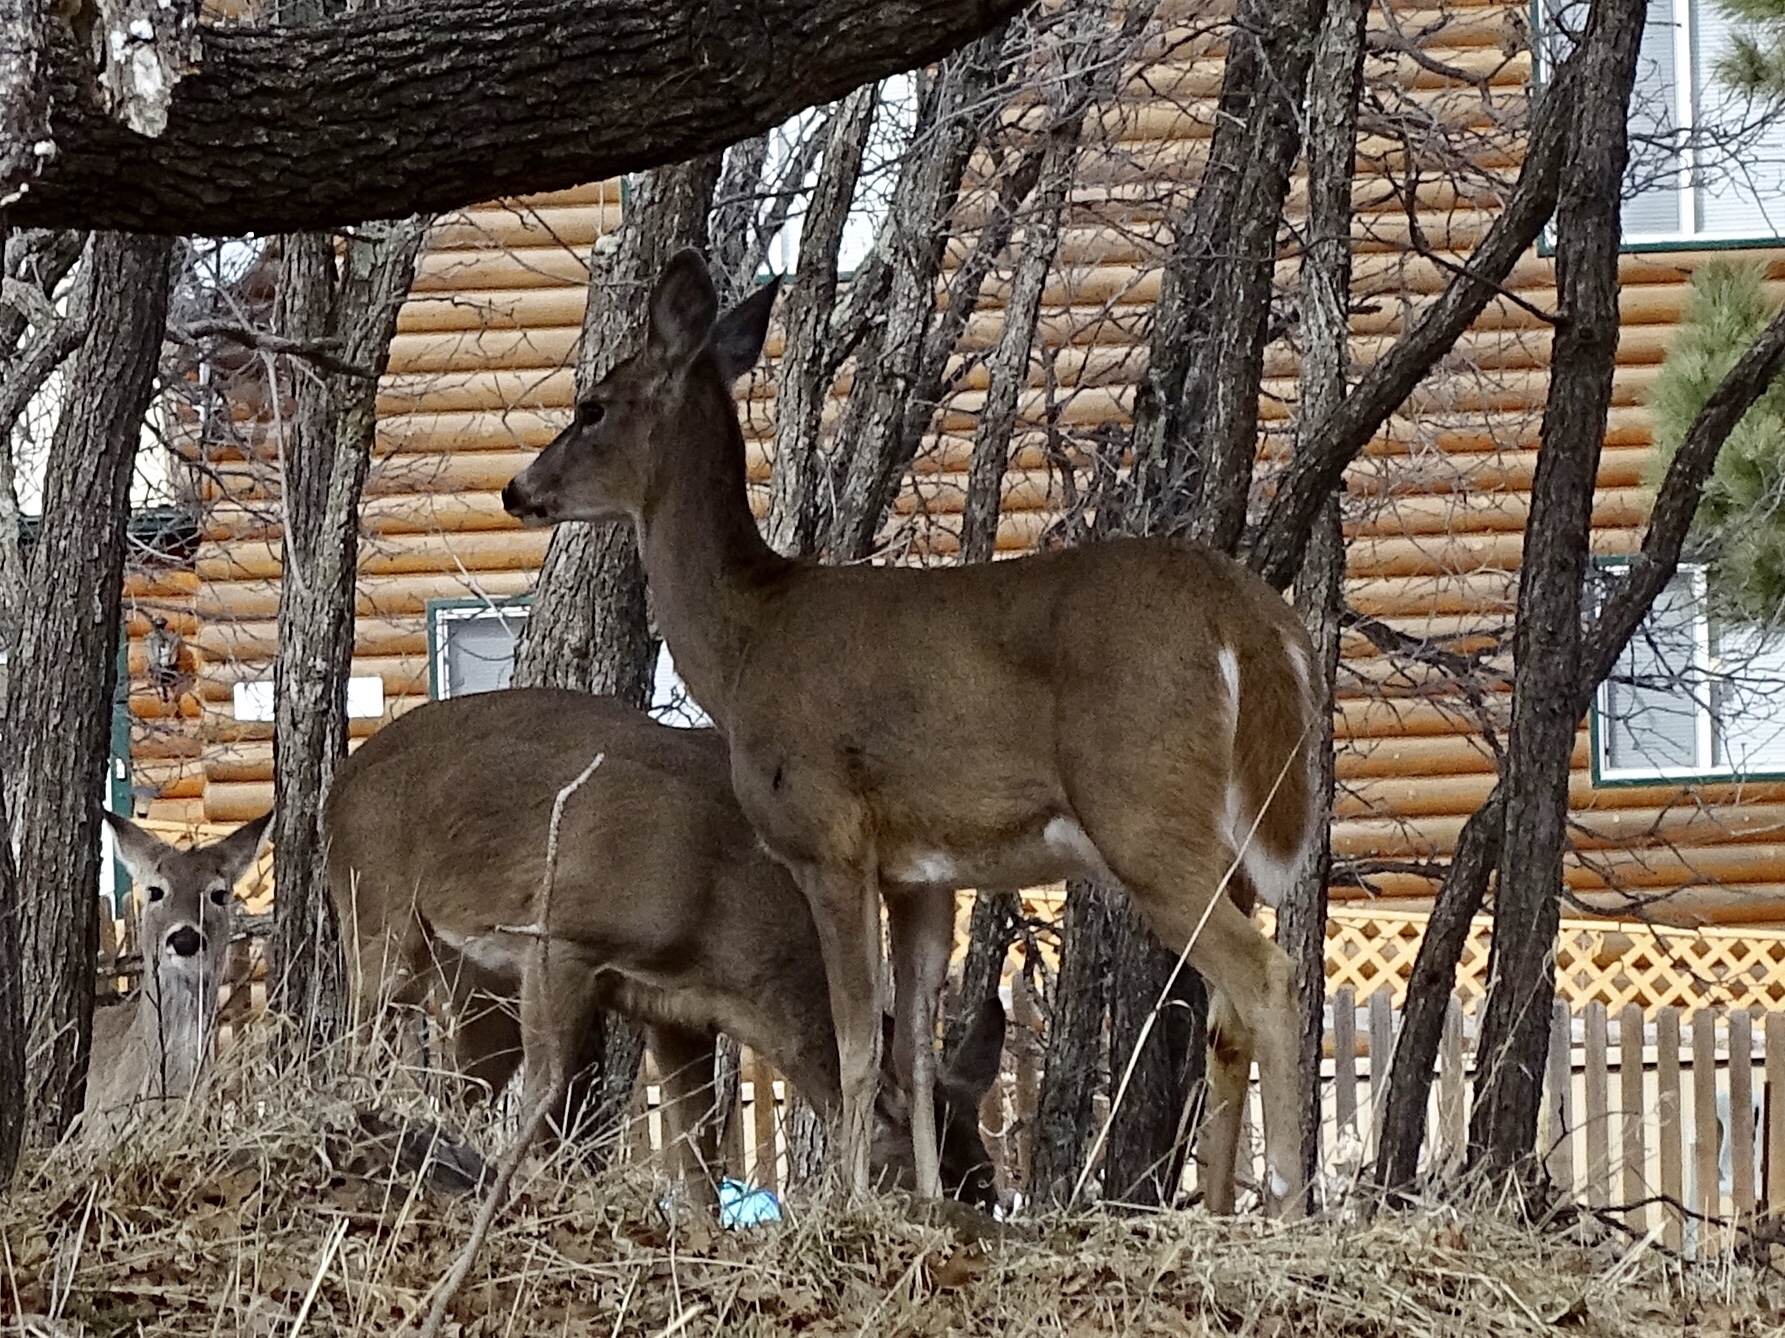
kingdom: Animalia
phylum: Chordata
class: Mammalia
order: Artiodactyla
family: Cervidae
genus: Odocoileus
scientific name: Odocoileus virginianus
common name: White-tailed deer
